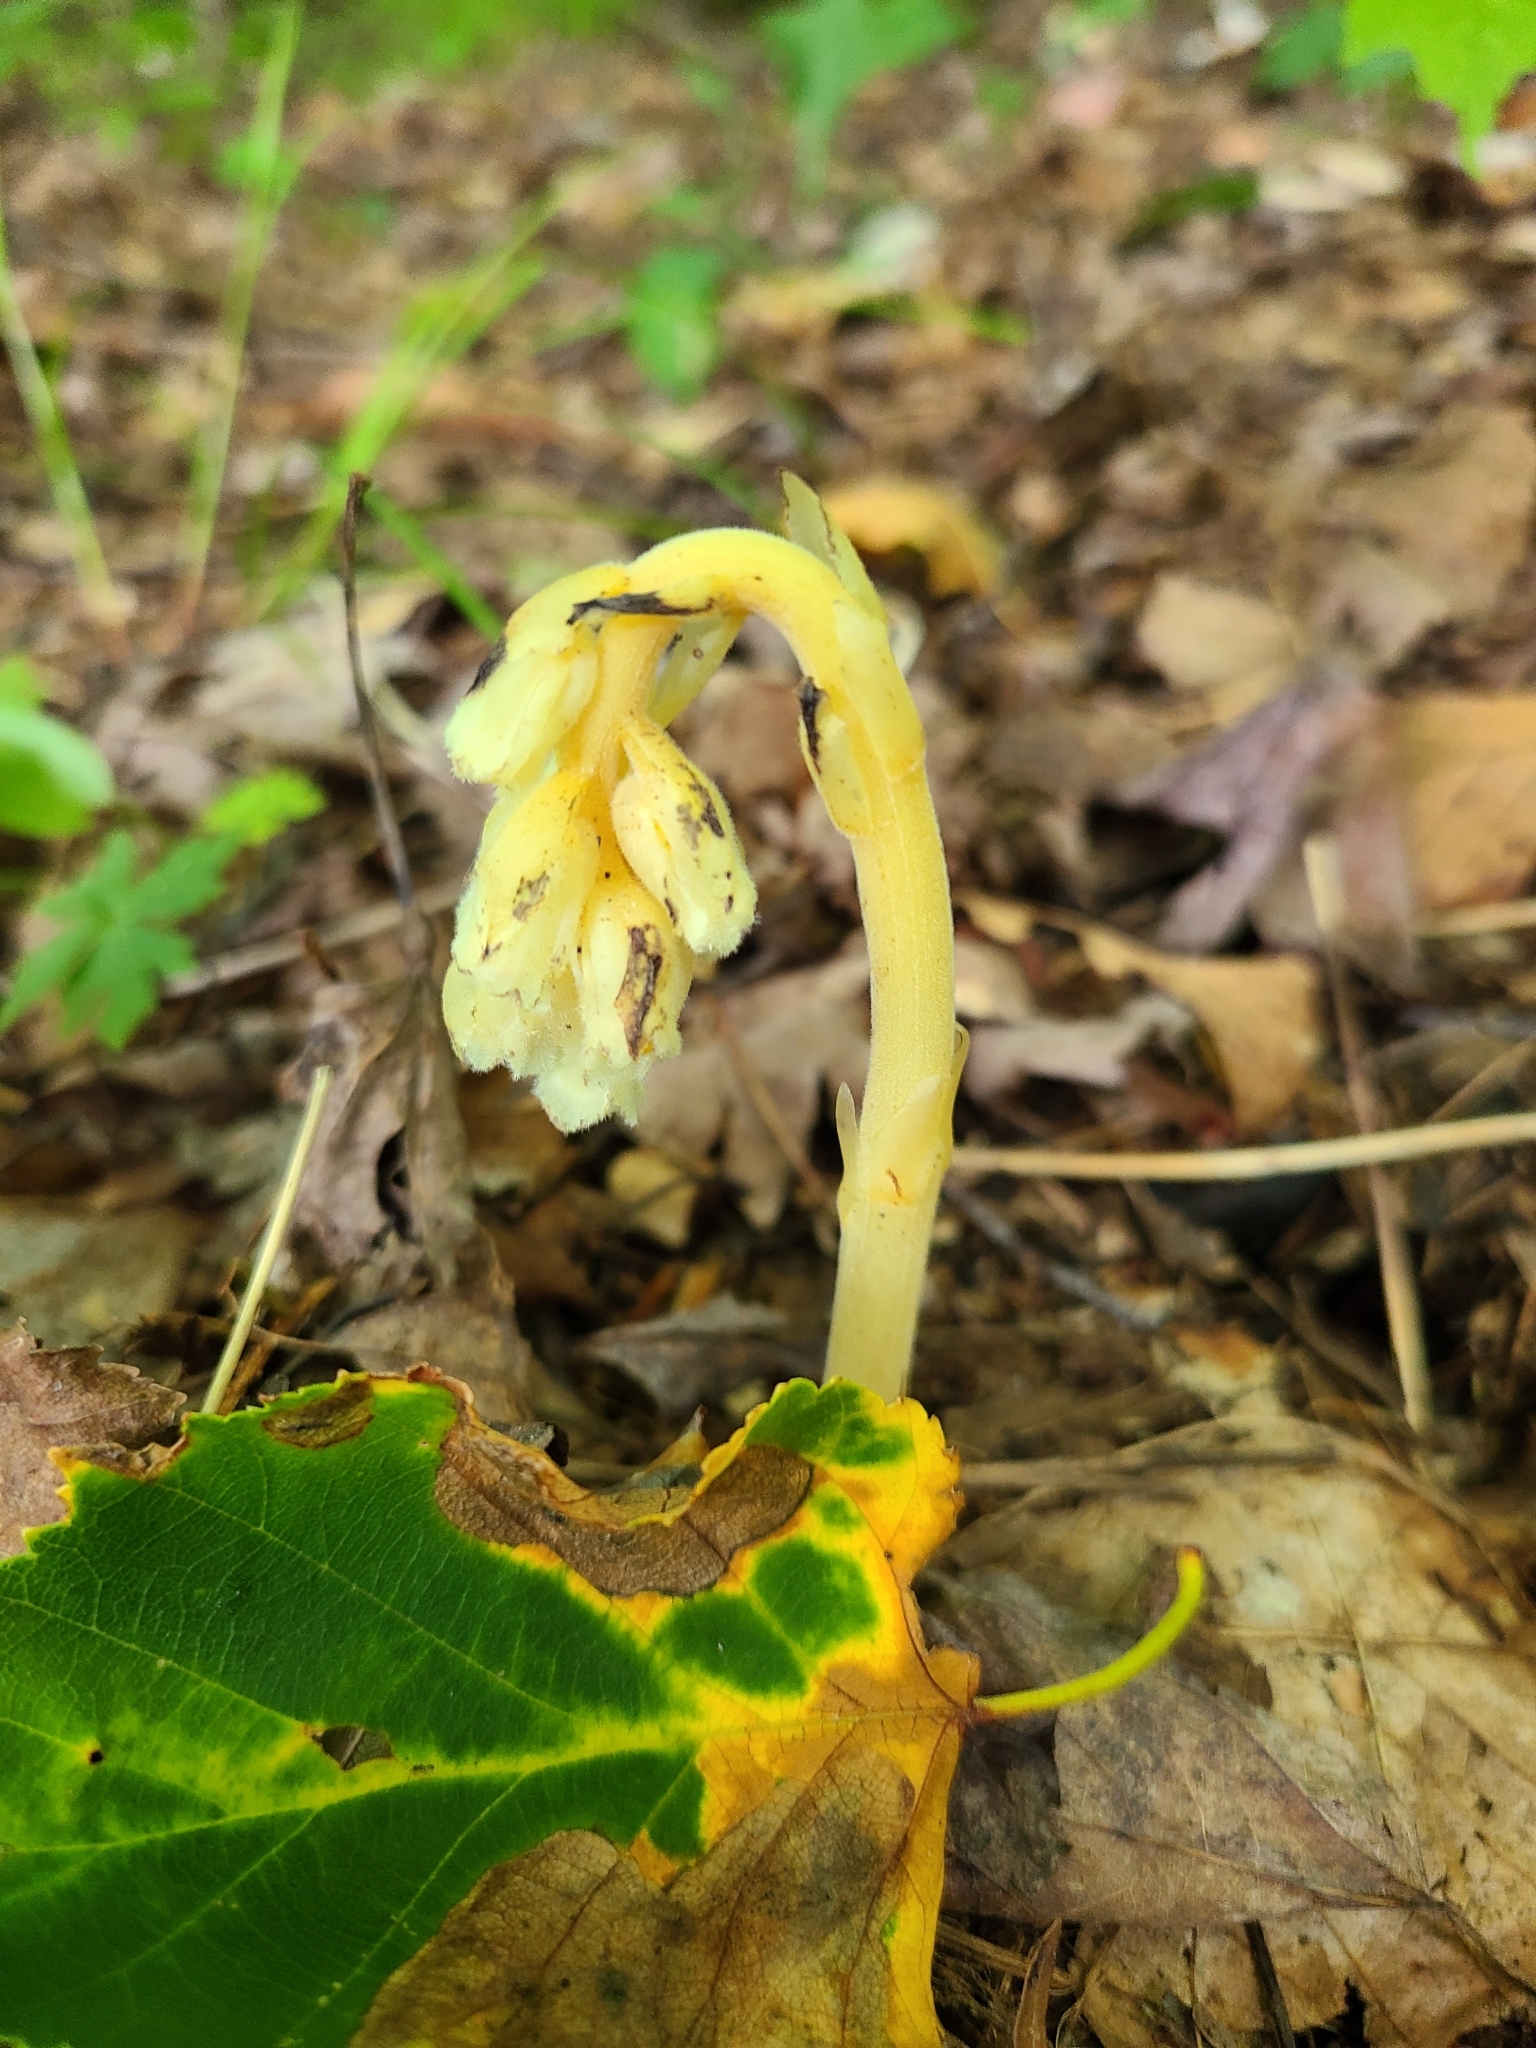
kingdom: Plantae
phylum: Tracheophyta
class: Magnoliopsida
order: Ericales
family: Ericaceae
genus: Hypopitys
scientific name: Hypopitys monotropa
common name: Yellow bird's-nest
